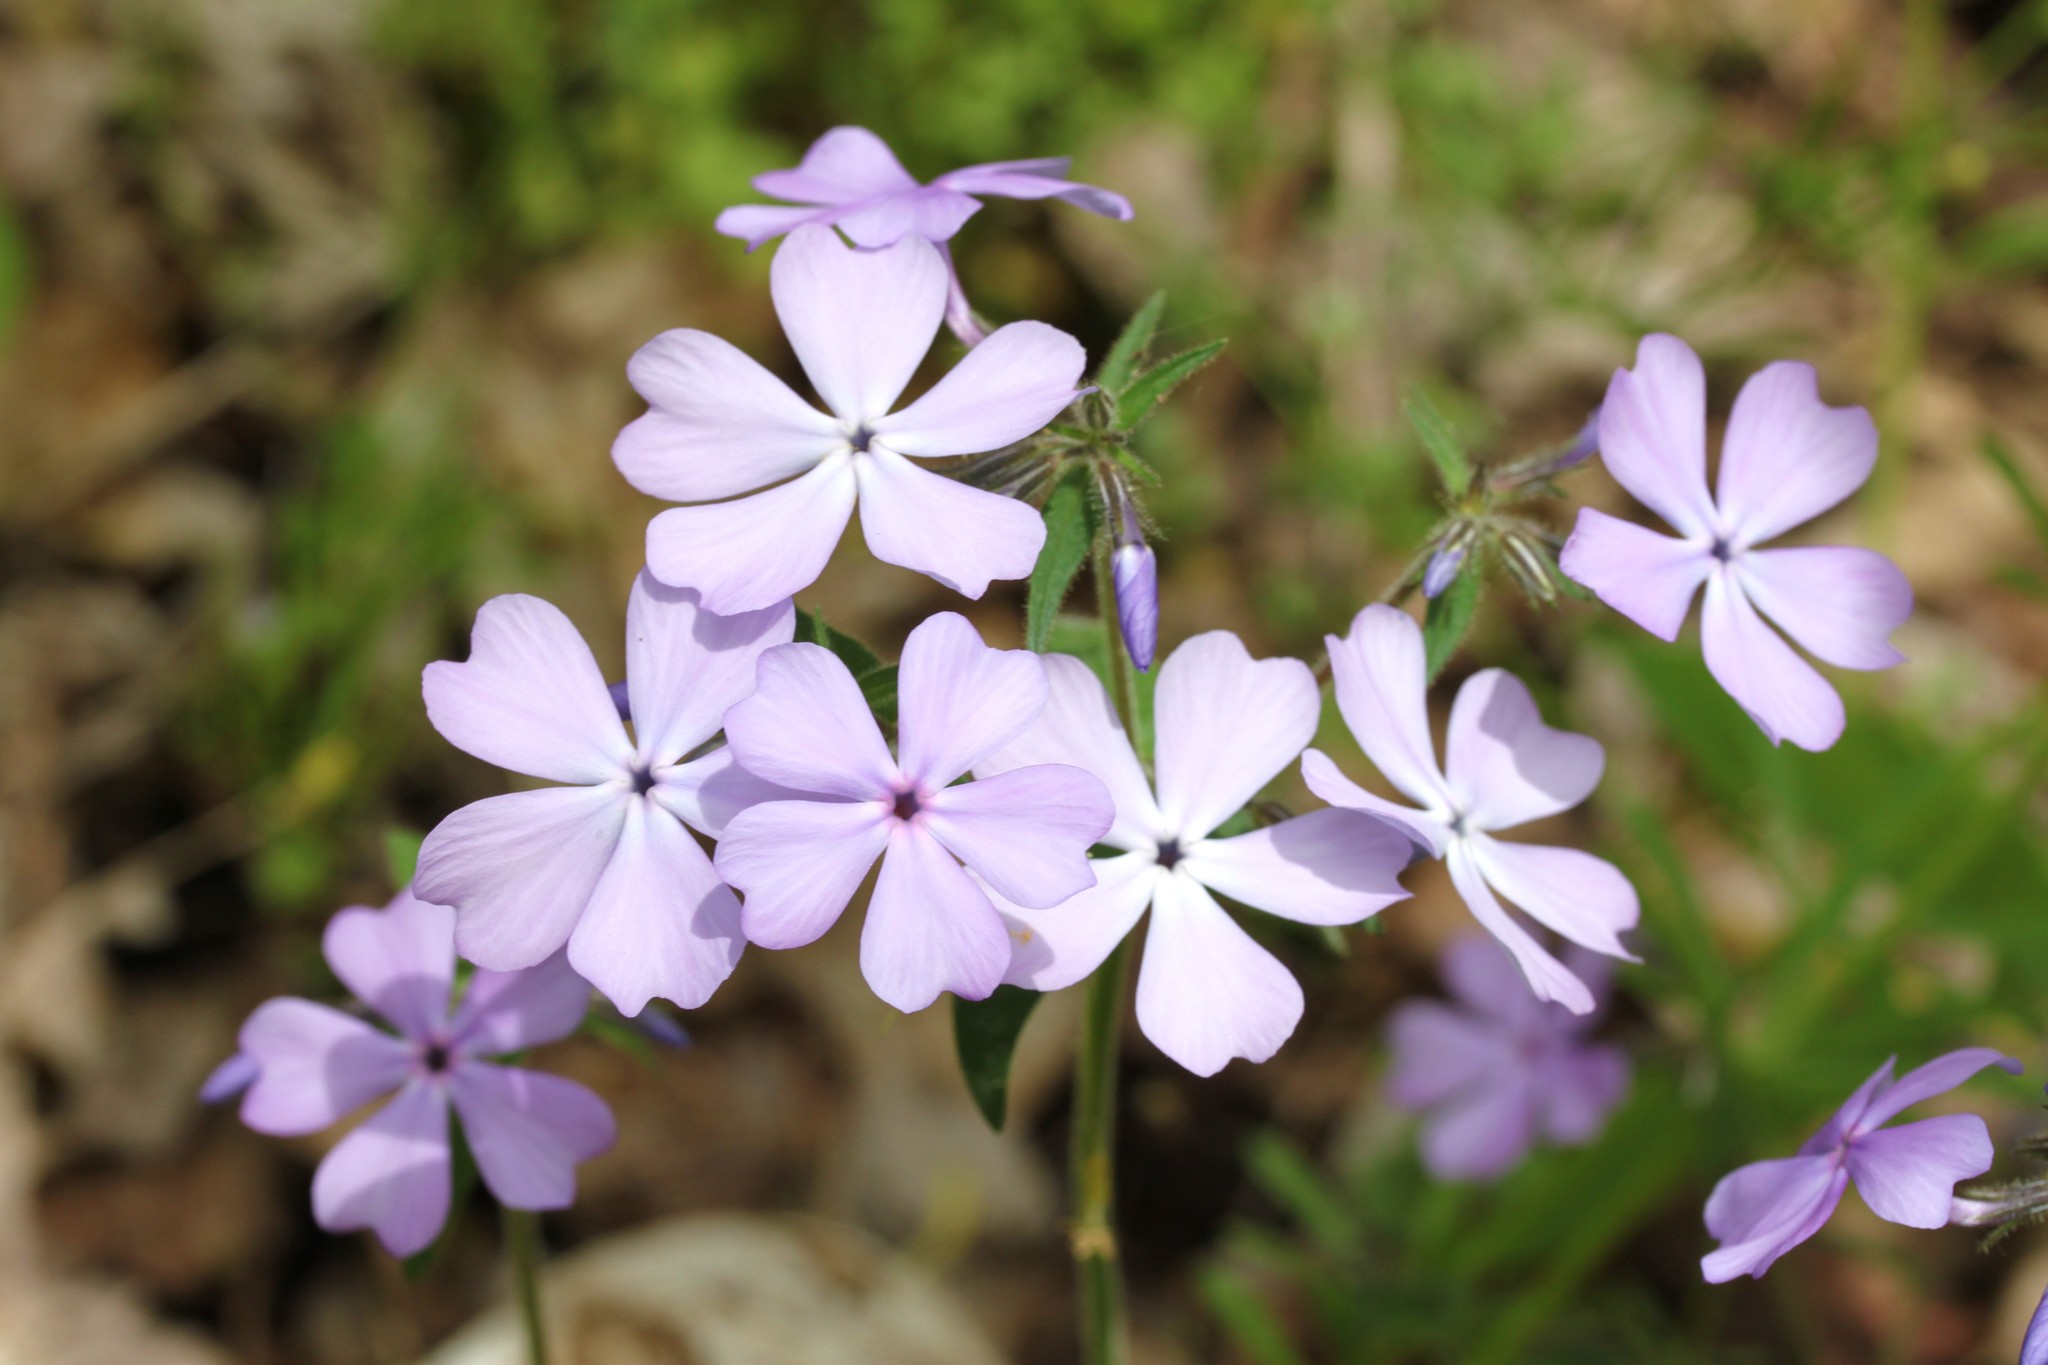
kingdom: Plantae
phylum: Tracheophyta
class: Magnoliopsida
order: Ericales
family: Polemoniaceae
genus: Phlox
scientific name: Phlox divaricata
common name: Blue phlox
